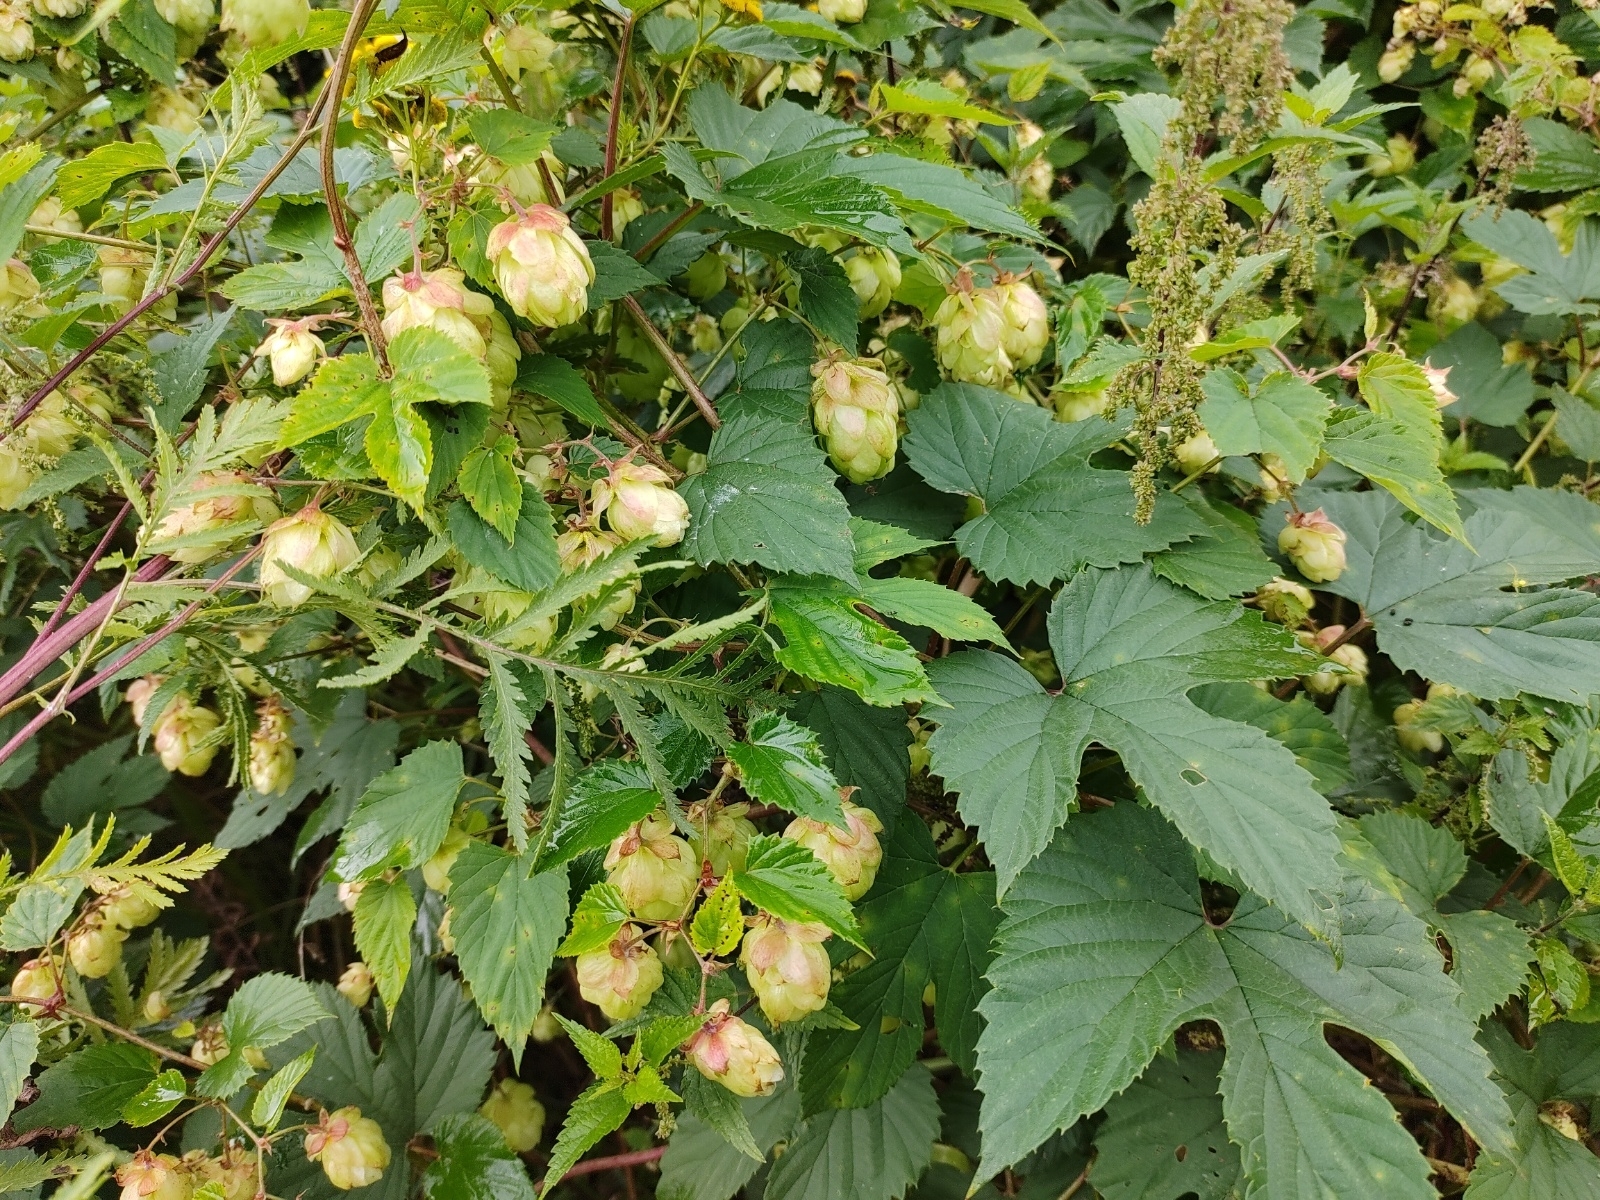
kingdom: Plantae
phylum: Tracheophyta
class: Magnoliopsida
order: Rosales
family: Cannabaceae
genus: Humulus
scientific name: Humulus lupulus
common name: Hop
